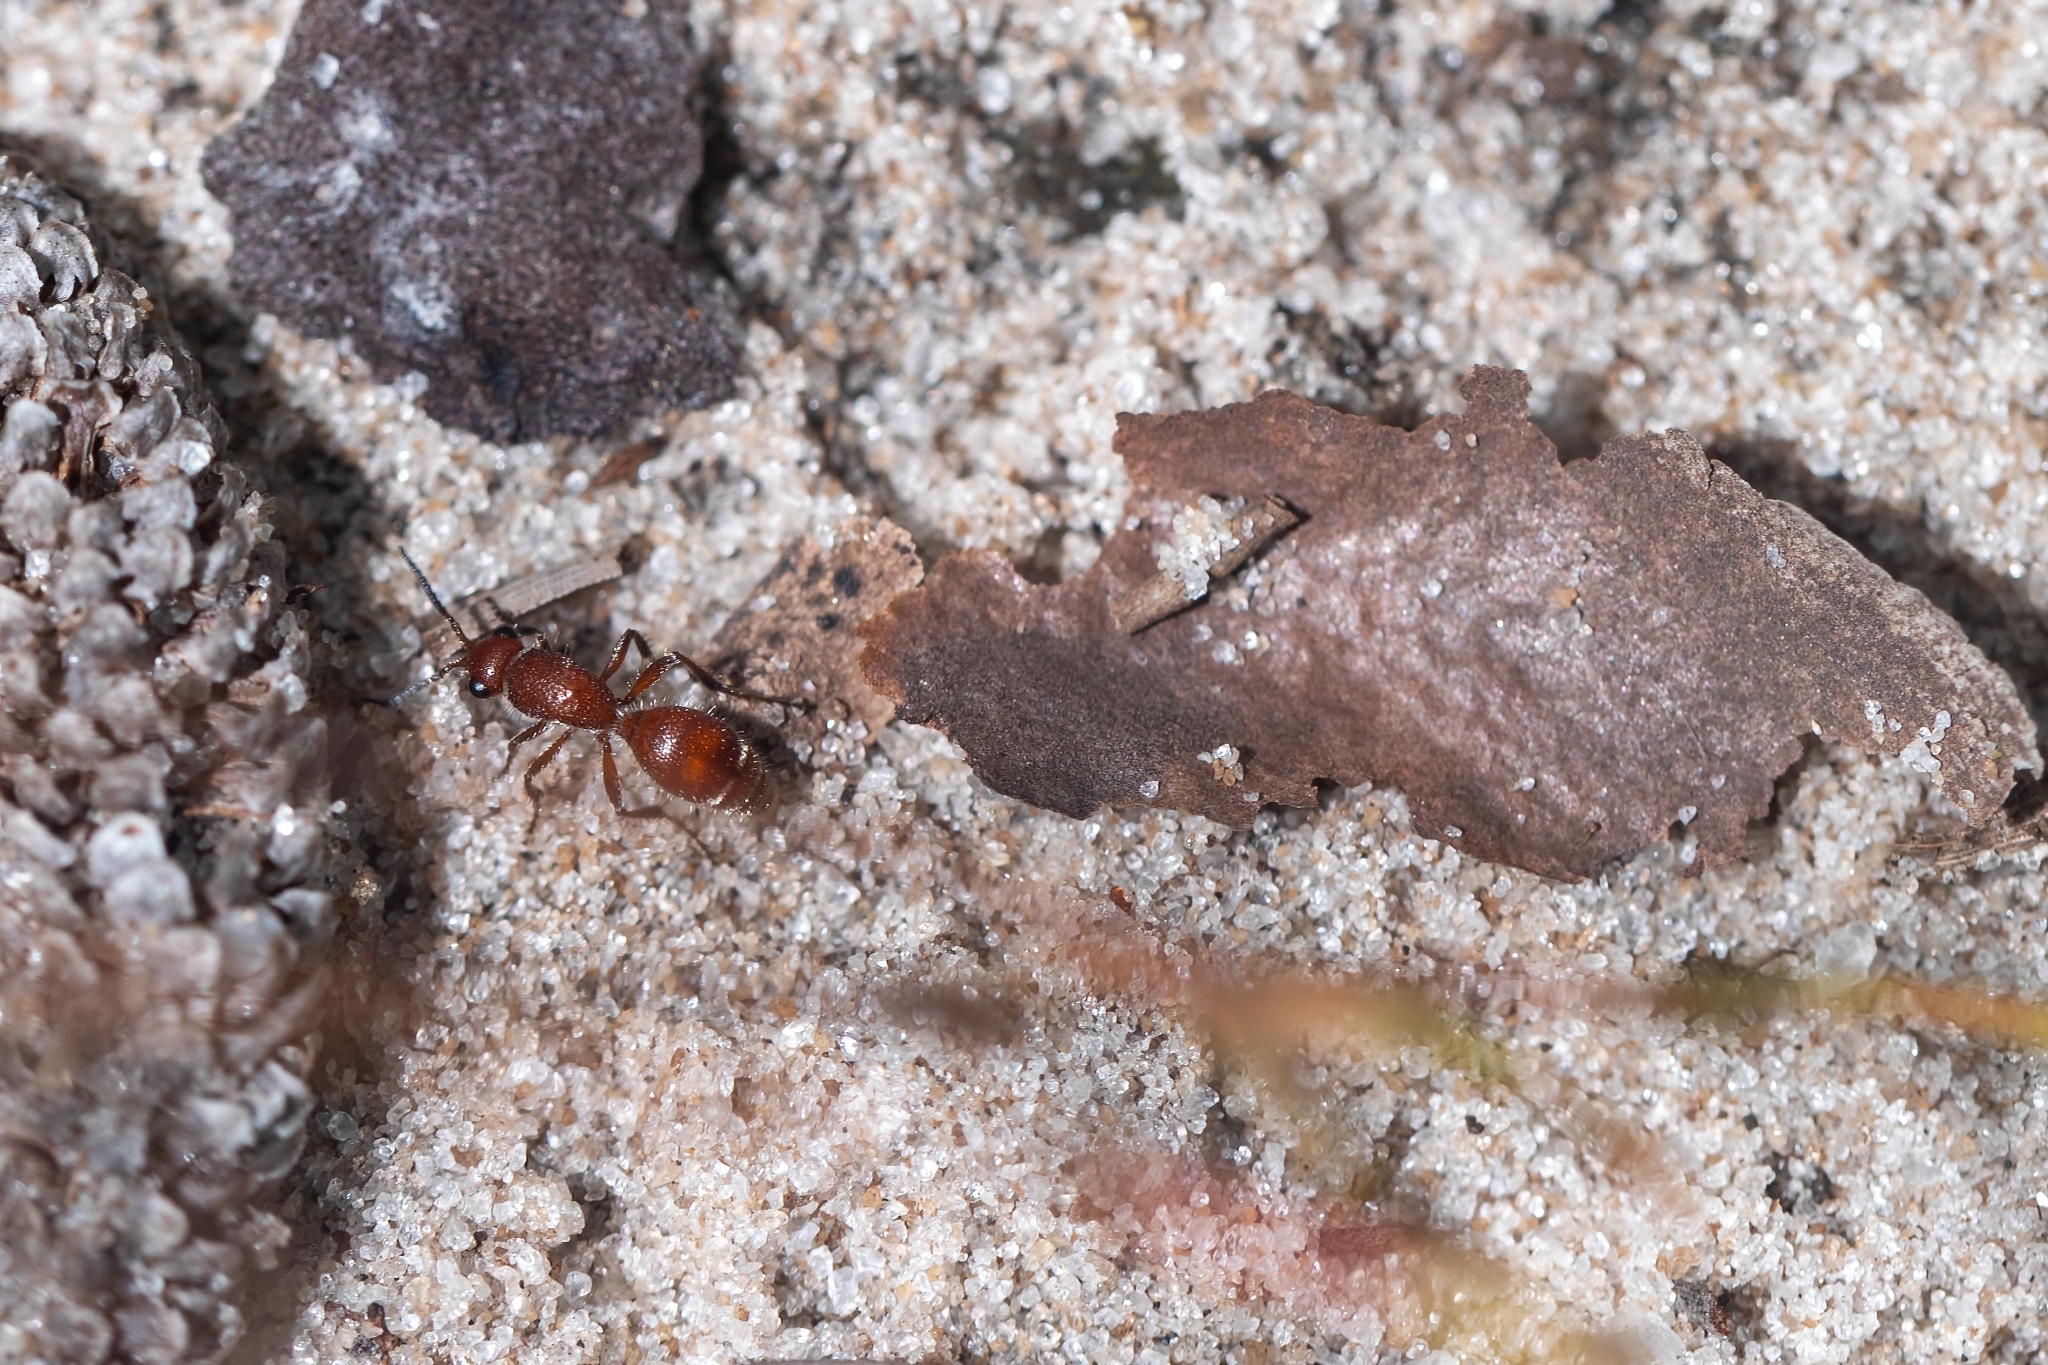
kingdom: Animalia
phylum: Arthropoda
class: Insecta
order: Hymenoptera
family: Mutillidae
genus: Dasymutilla
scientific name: Dasymutilla arenerronea
